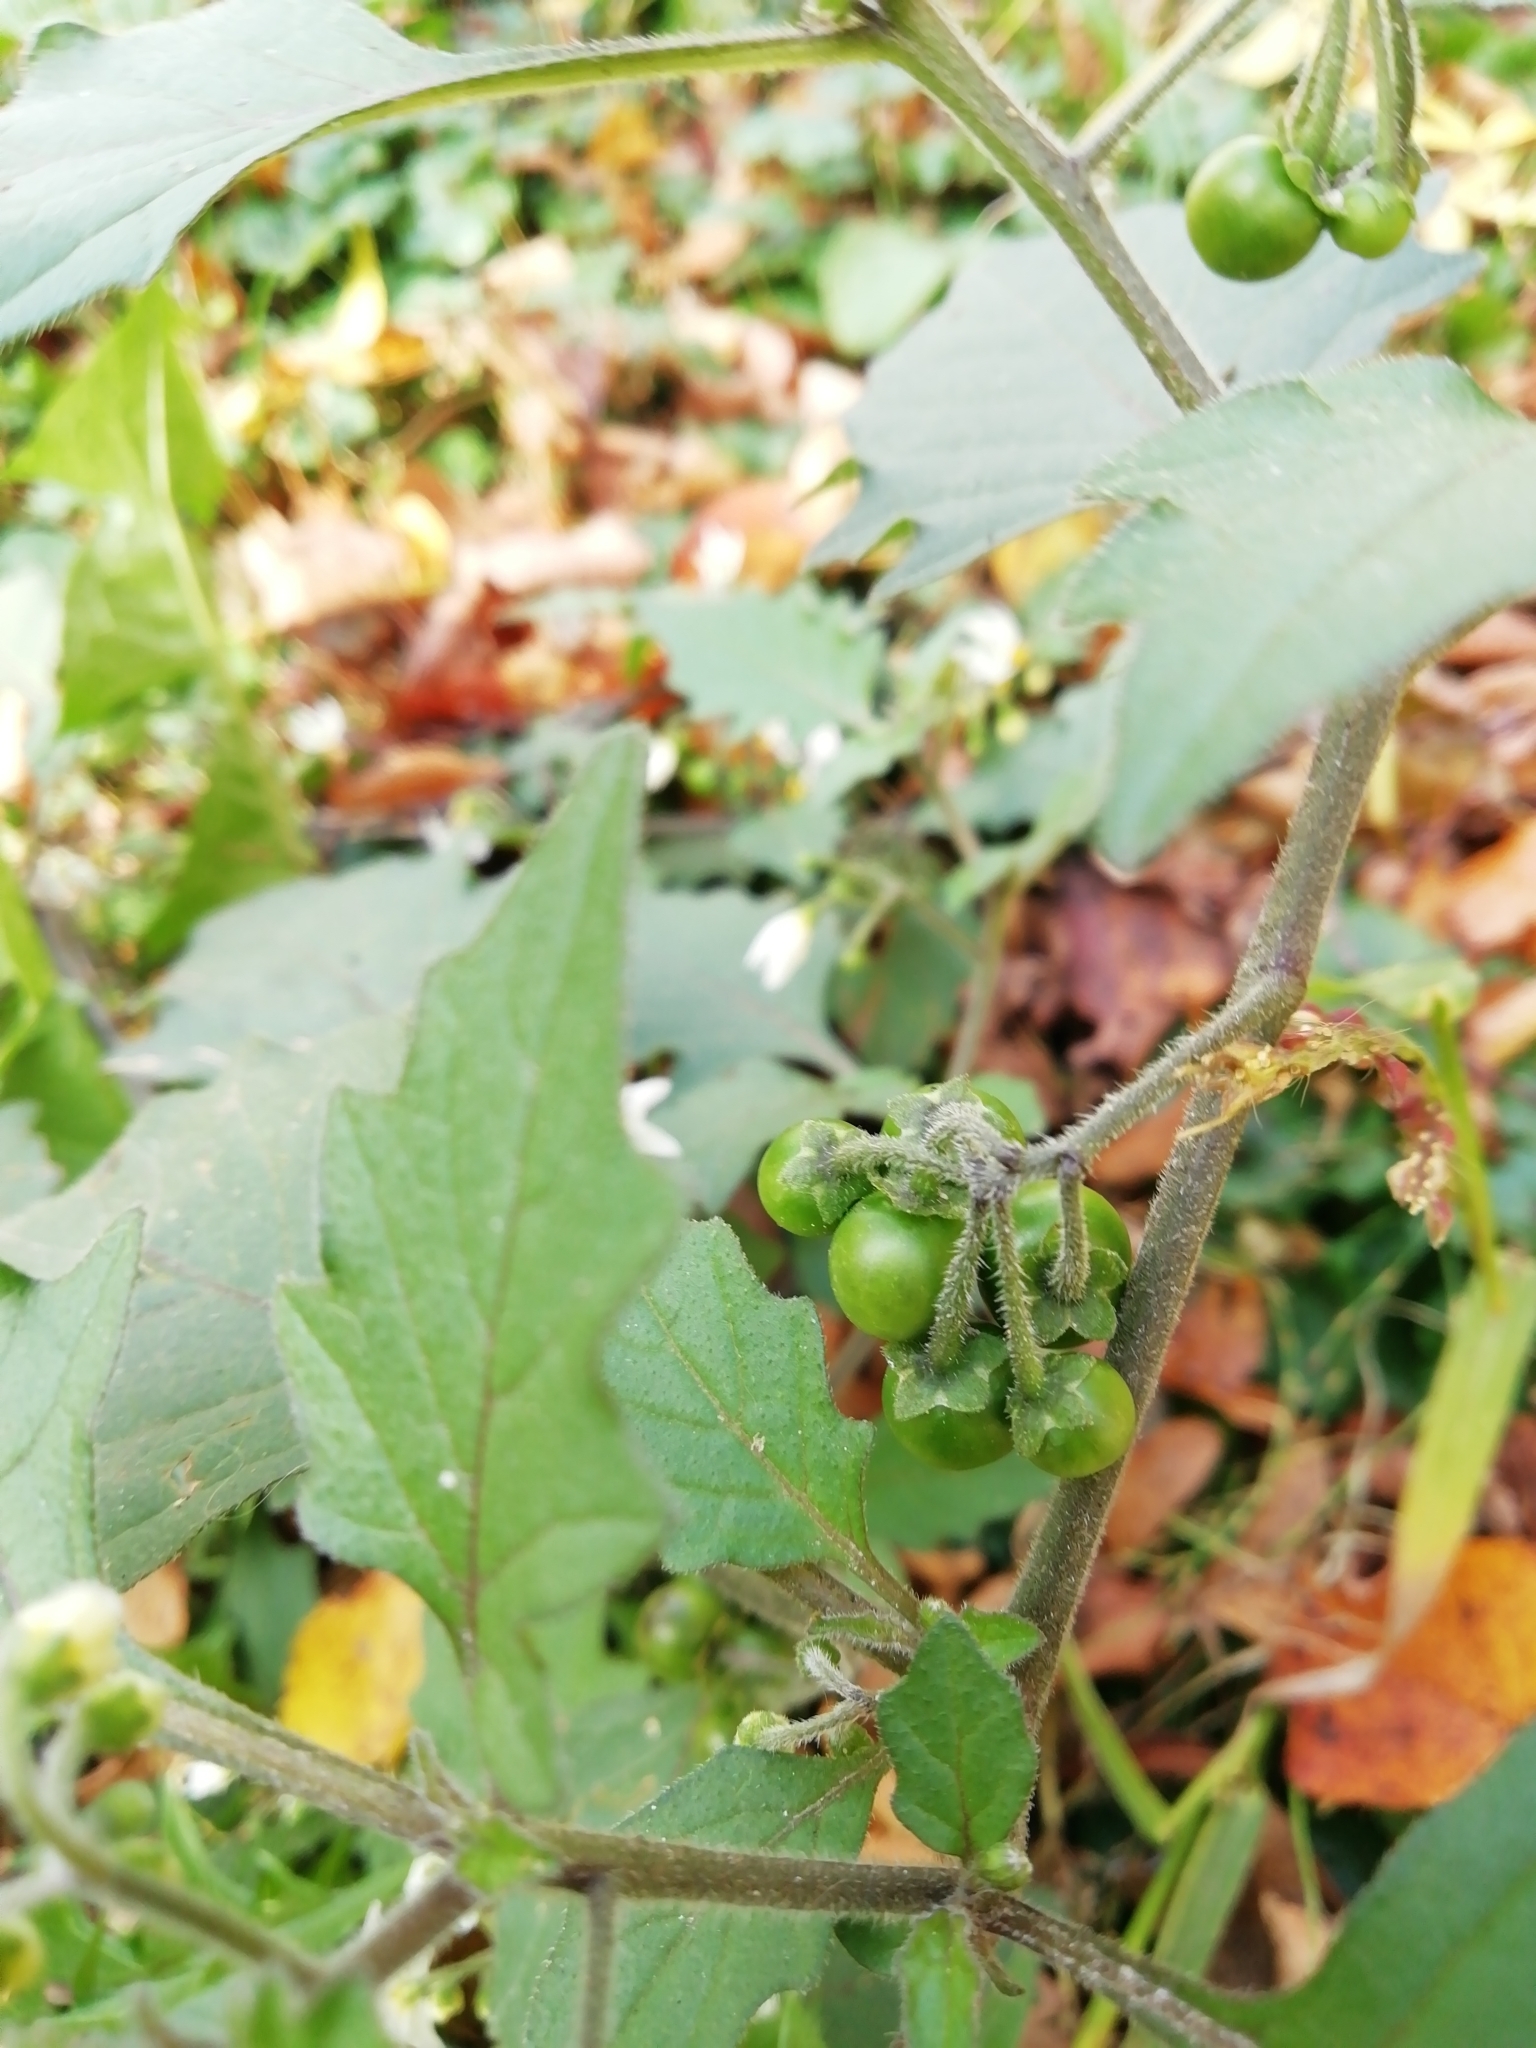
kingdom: Plantae
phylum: Tracheophyta
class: Magnoliopsida
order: Solanales
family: Solanaceae
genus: Solanum
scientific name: Solanum decipiens
